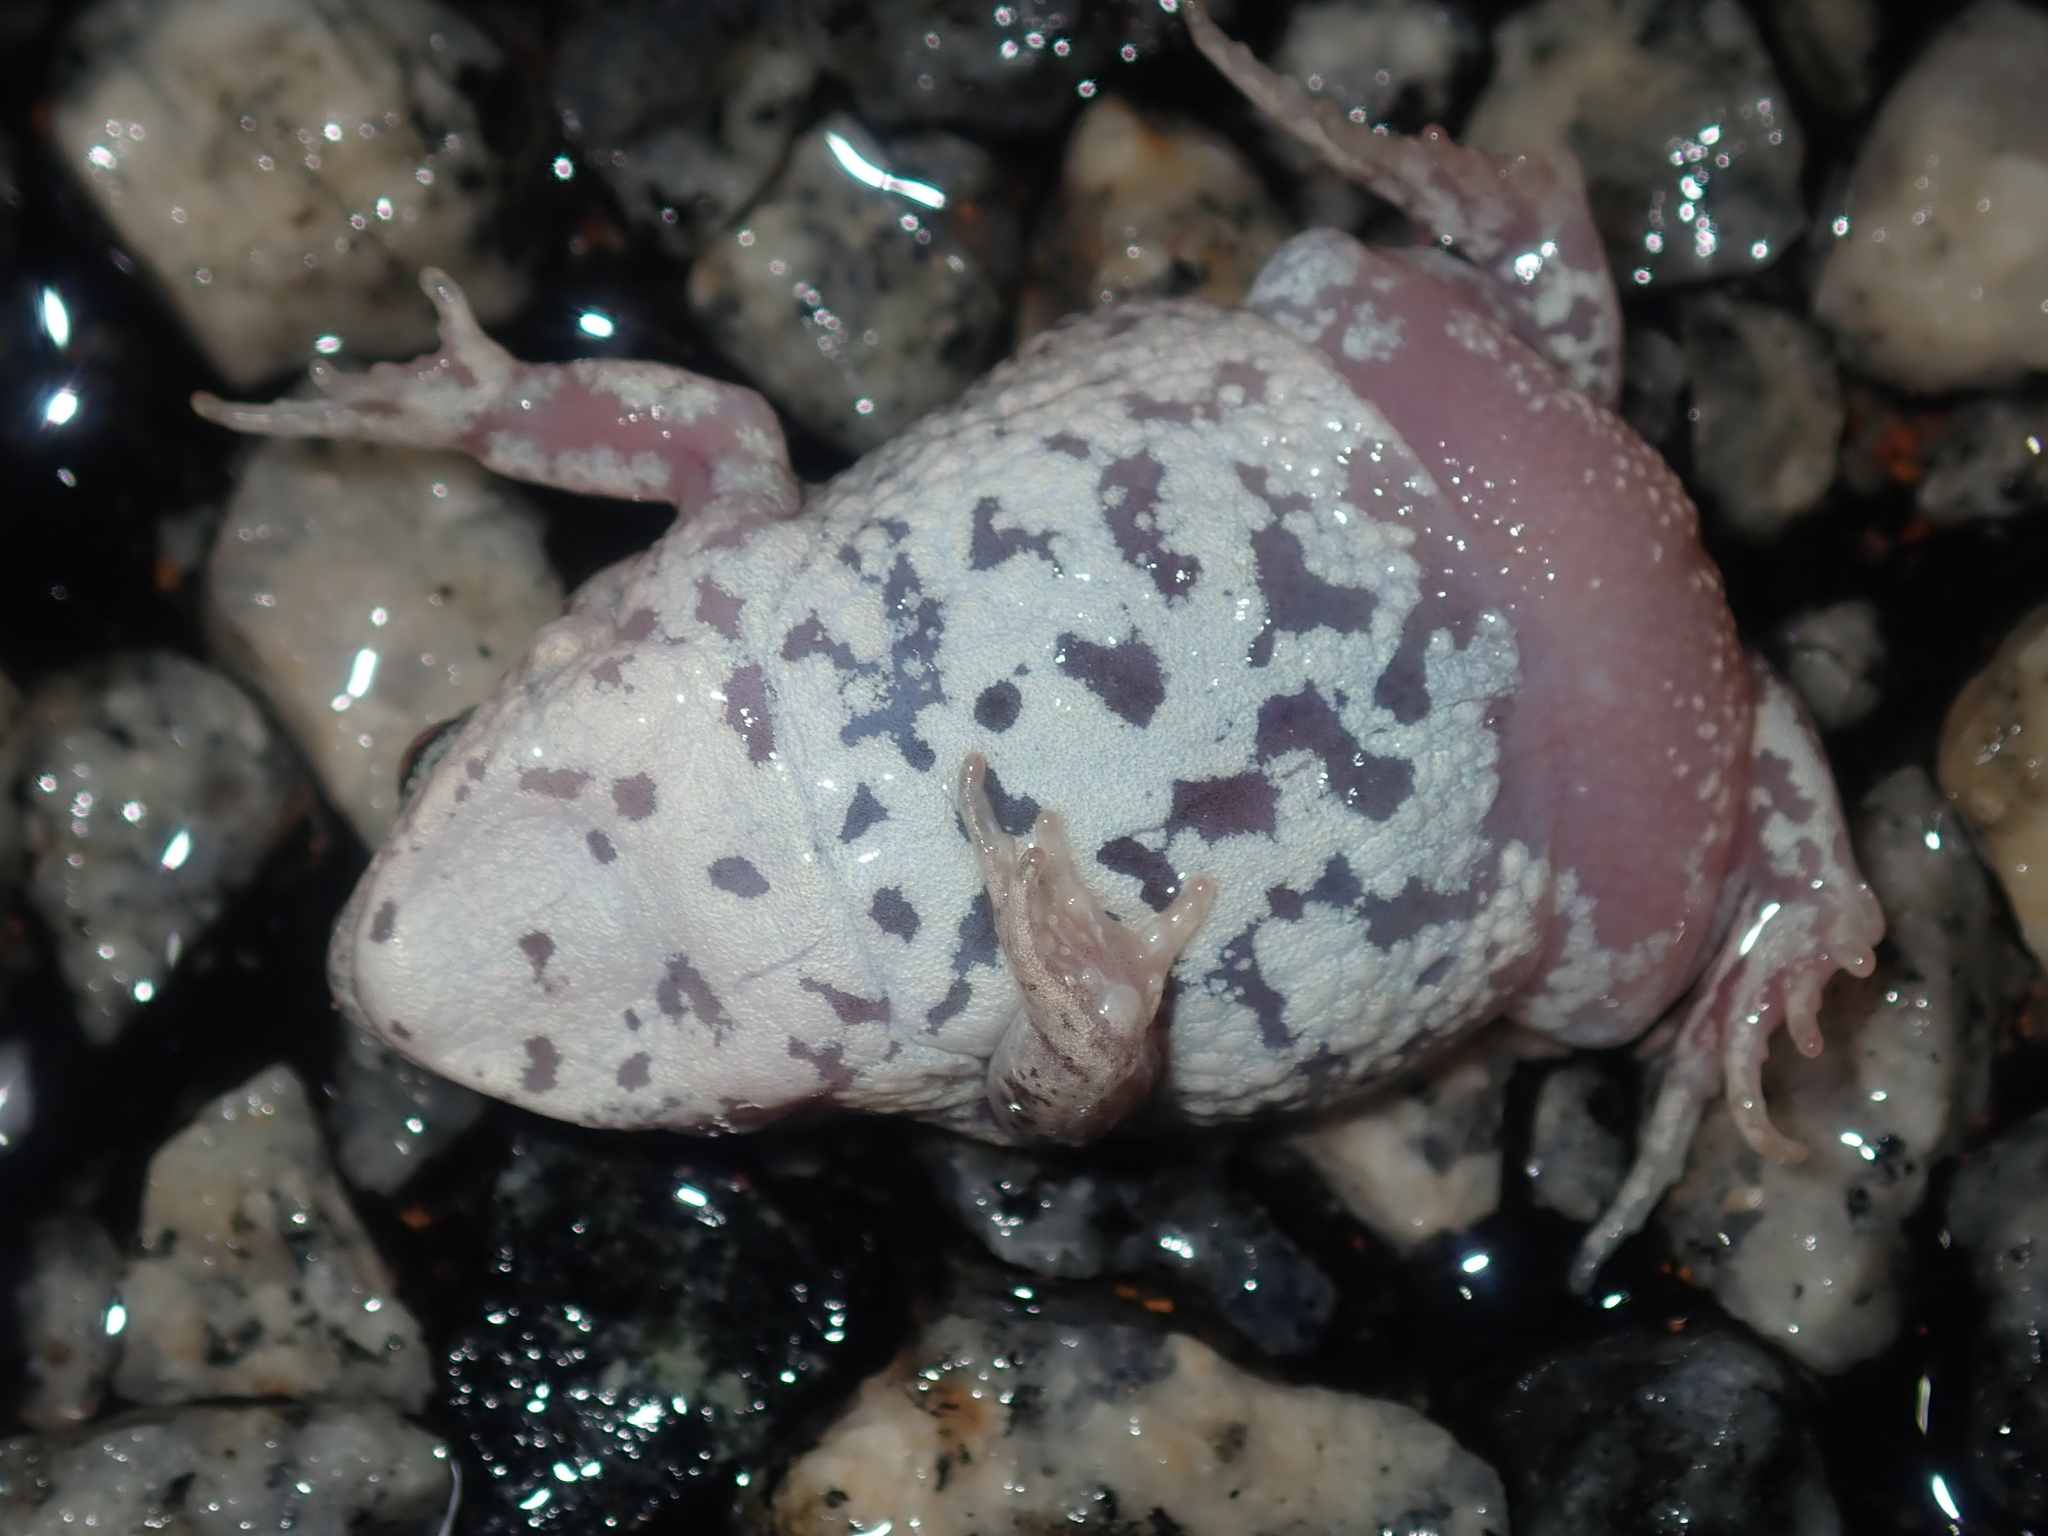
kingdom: Animalia
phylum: Chordata
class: Amphibia
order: Anura
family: Myobatrachidae
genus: Pseudophryne
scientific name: Pseudophryne guentheri
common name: Günther’s toadlet
